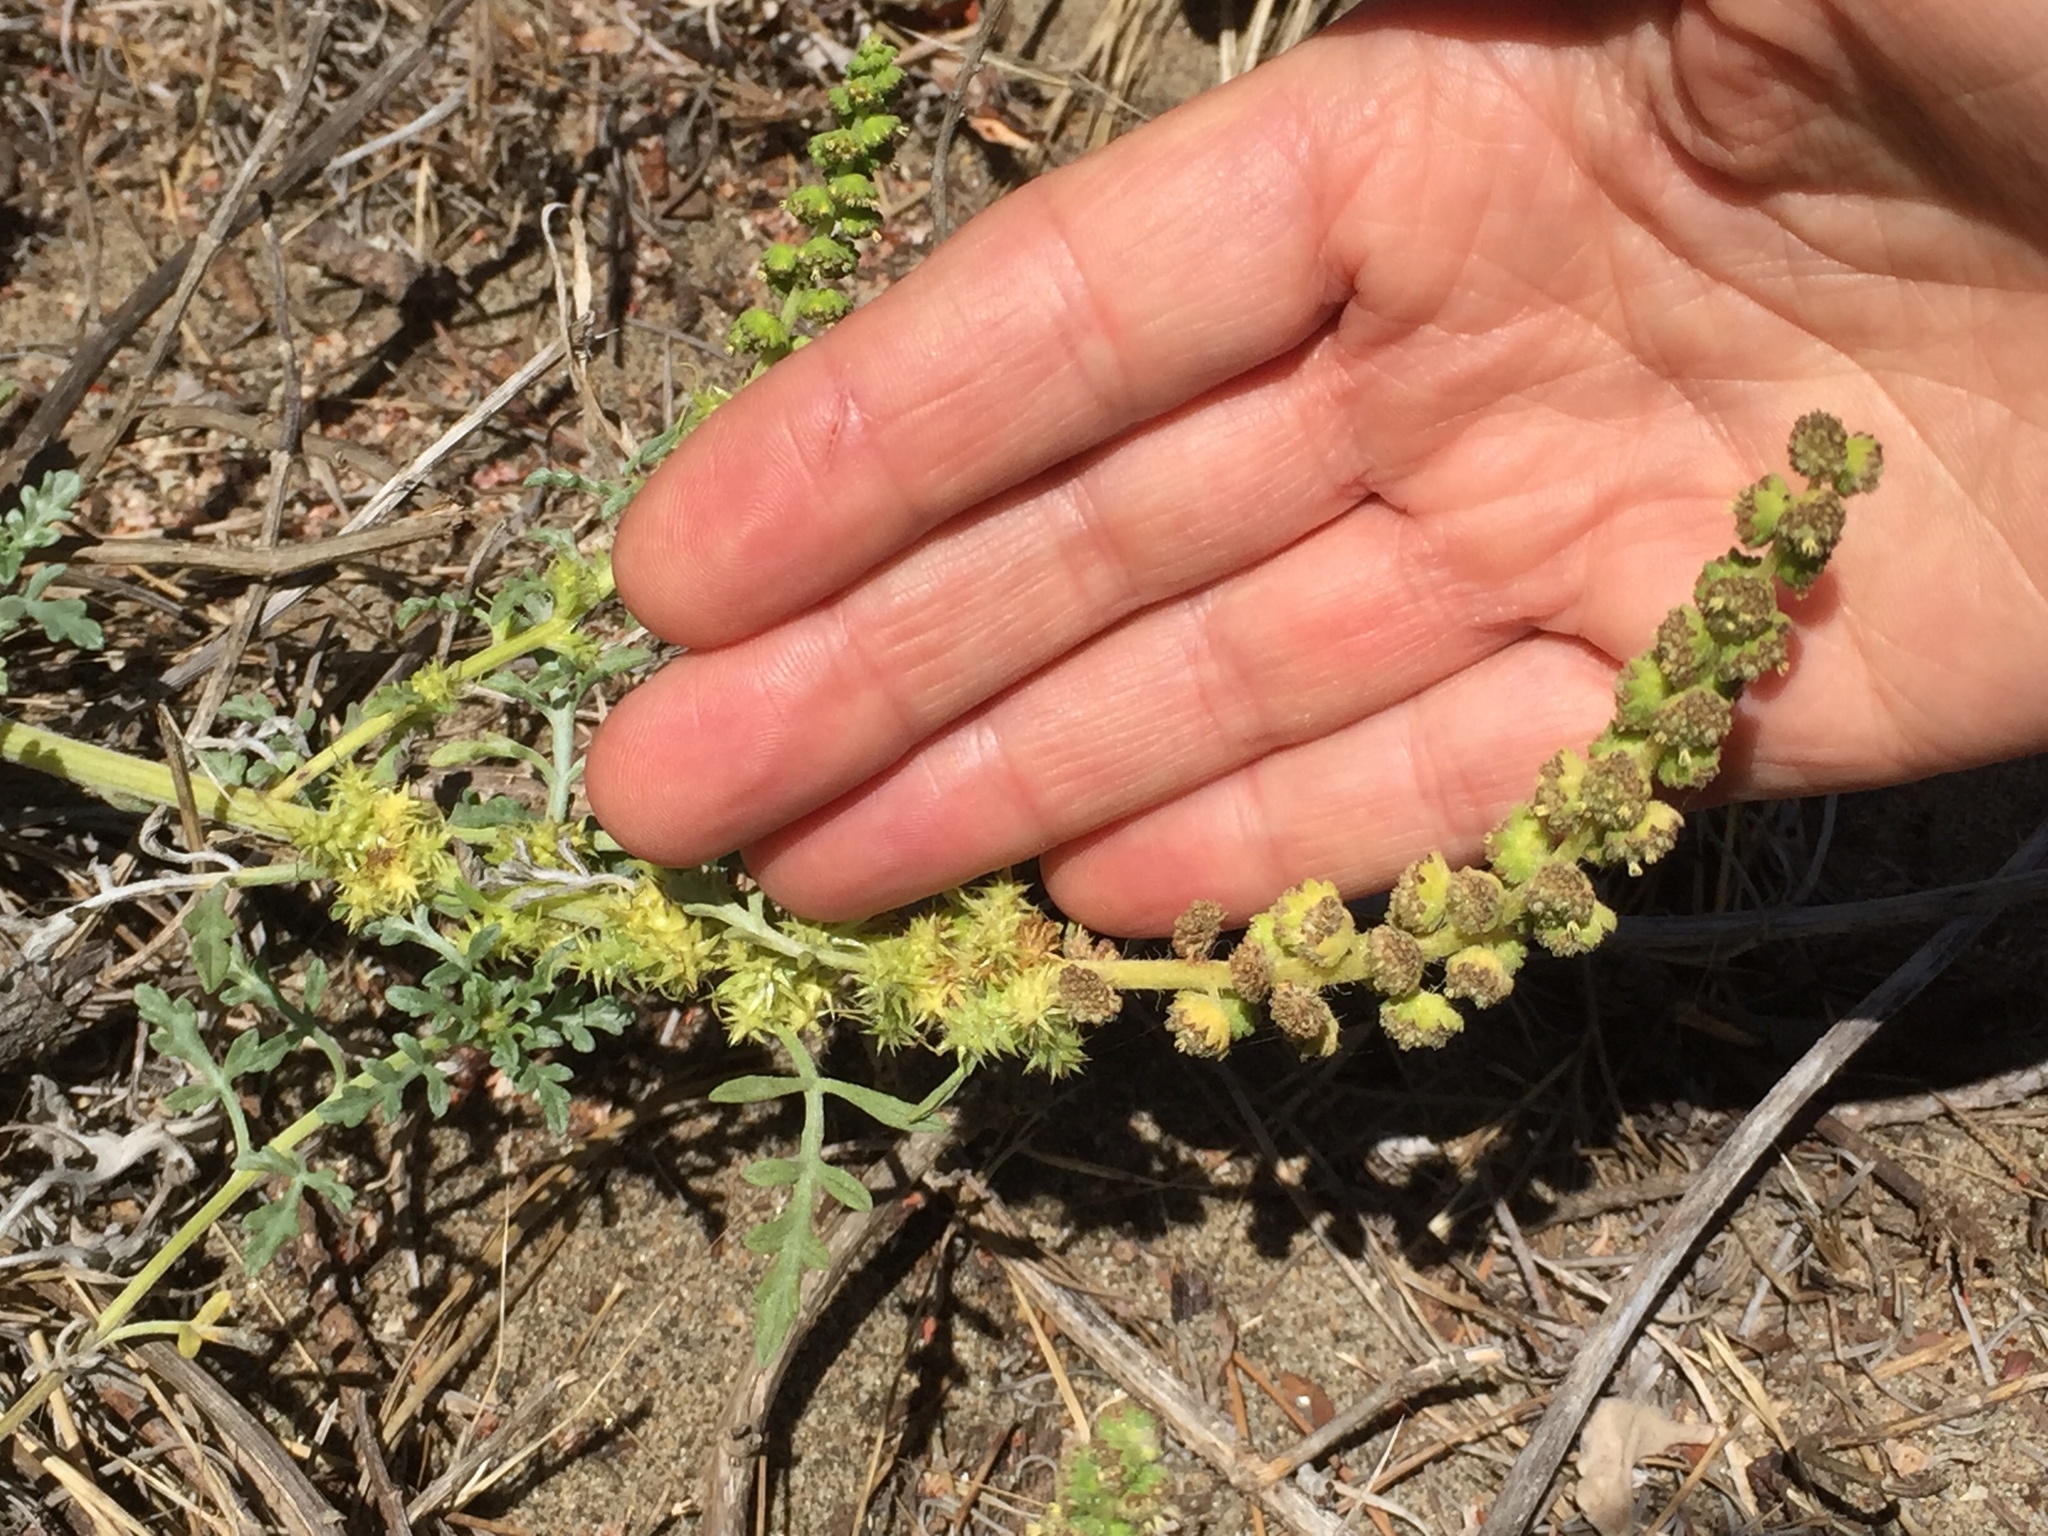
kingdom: Plantae
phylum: Tracheophyta
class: Magnoliopsida
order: Asterales
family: Asteraceae
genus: Ambrosia
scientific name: Ambrosia chamissonis
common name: Beachbur
